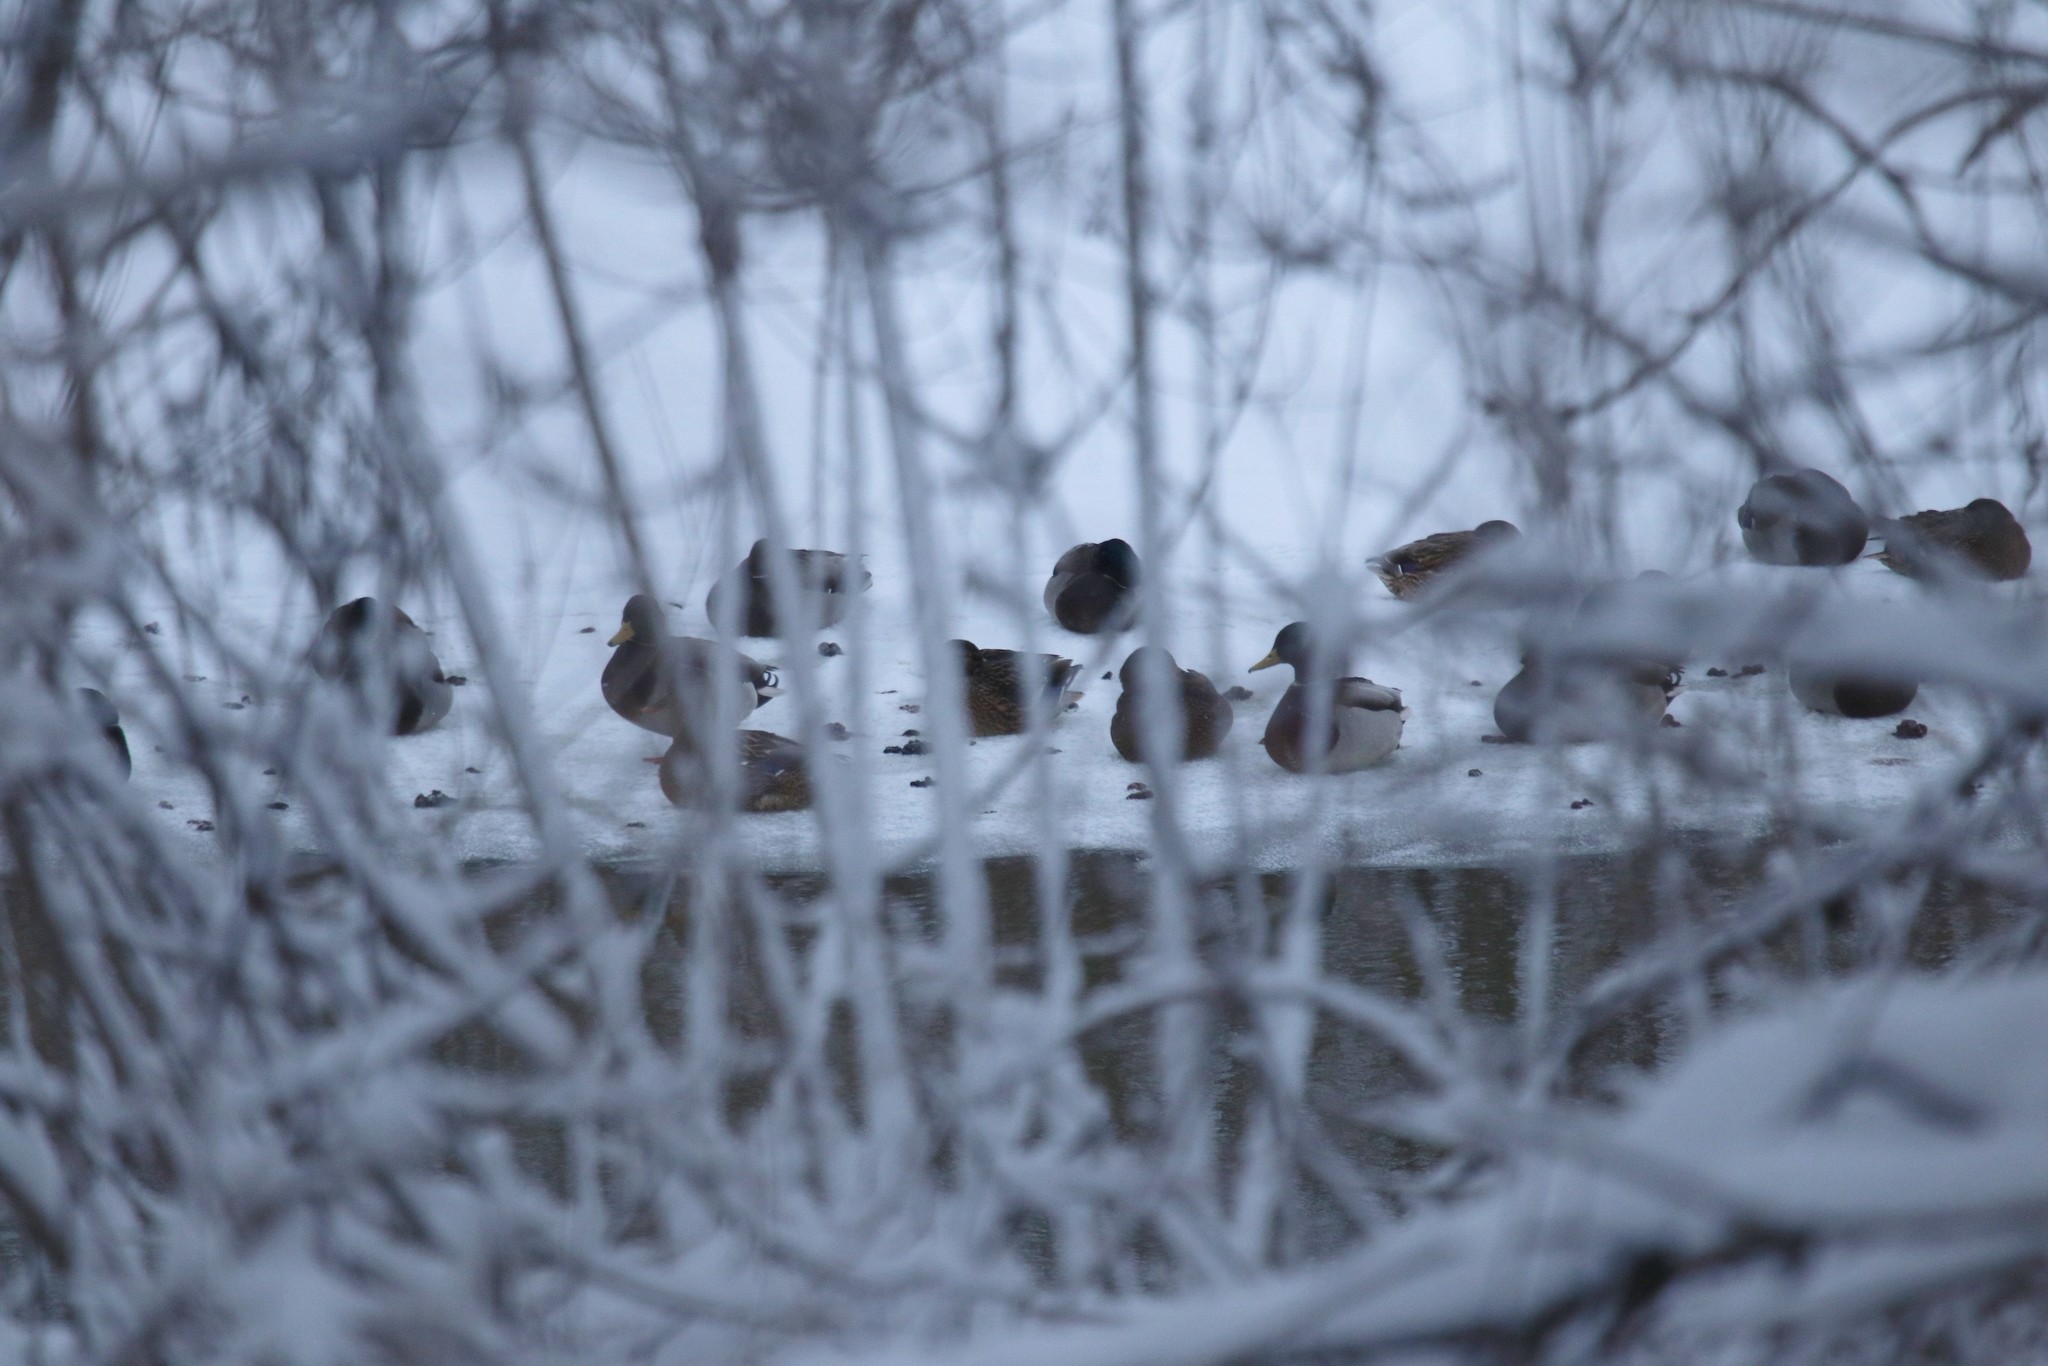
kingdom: Animalia
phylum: Chordata
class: Aves
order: Anseriformes
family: Anatidae
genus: Anas
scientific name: Anas platyrhynchos
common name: Mallard
